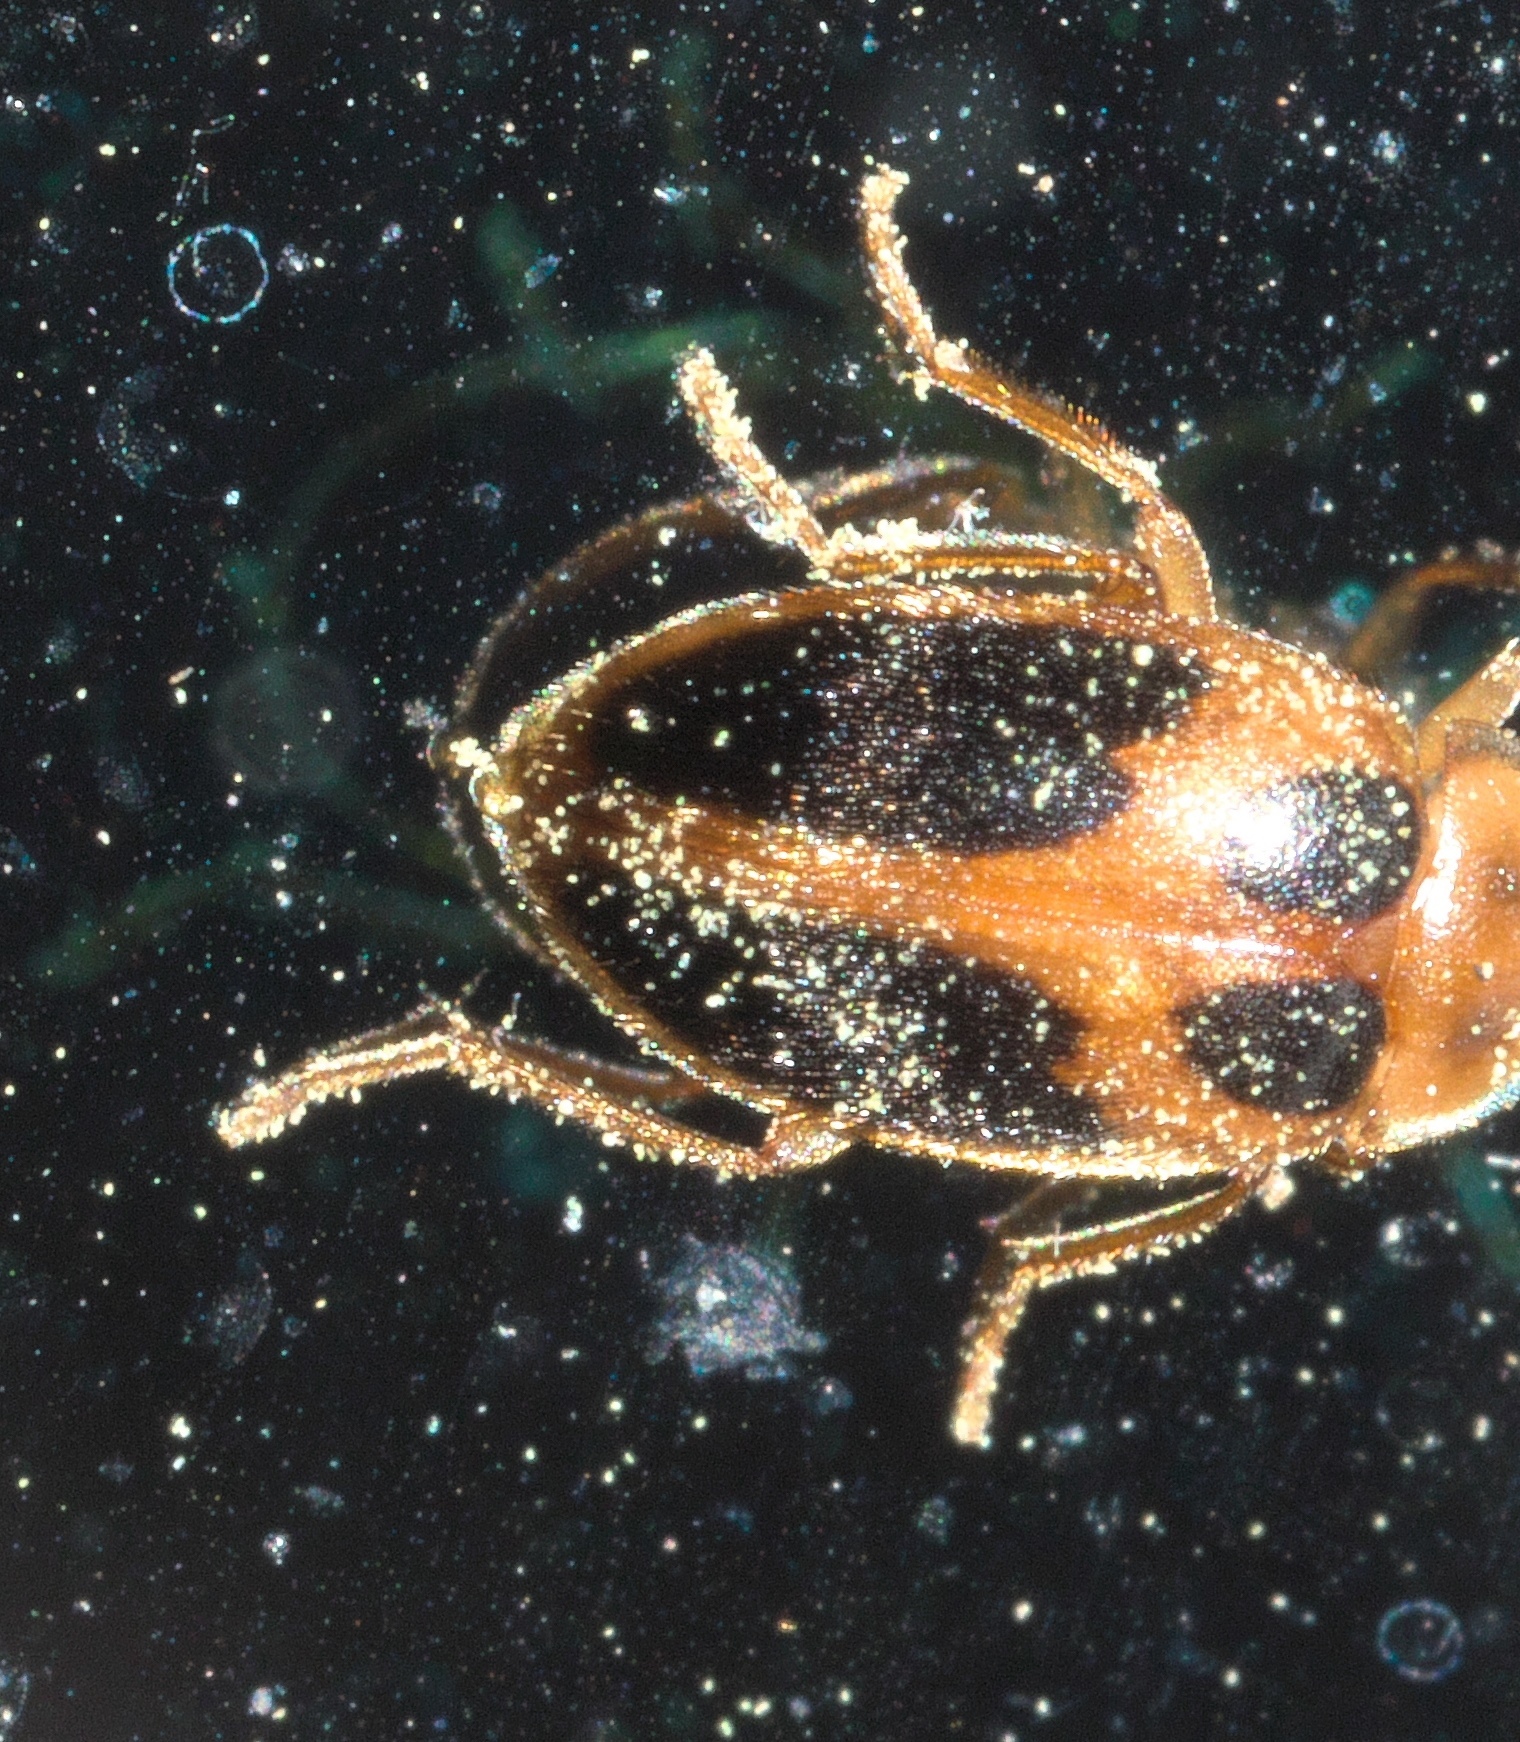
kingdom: Animalia
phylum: Arthropoda
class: Insecta
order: Coleoptera
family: Scirtidae
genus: Sacodes
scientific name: Sacodes pulchella
